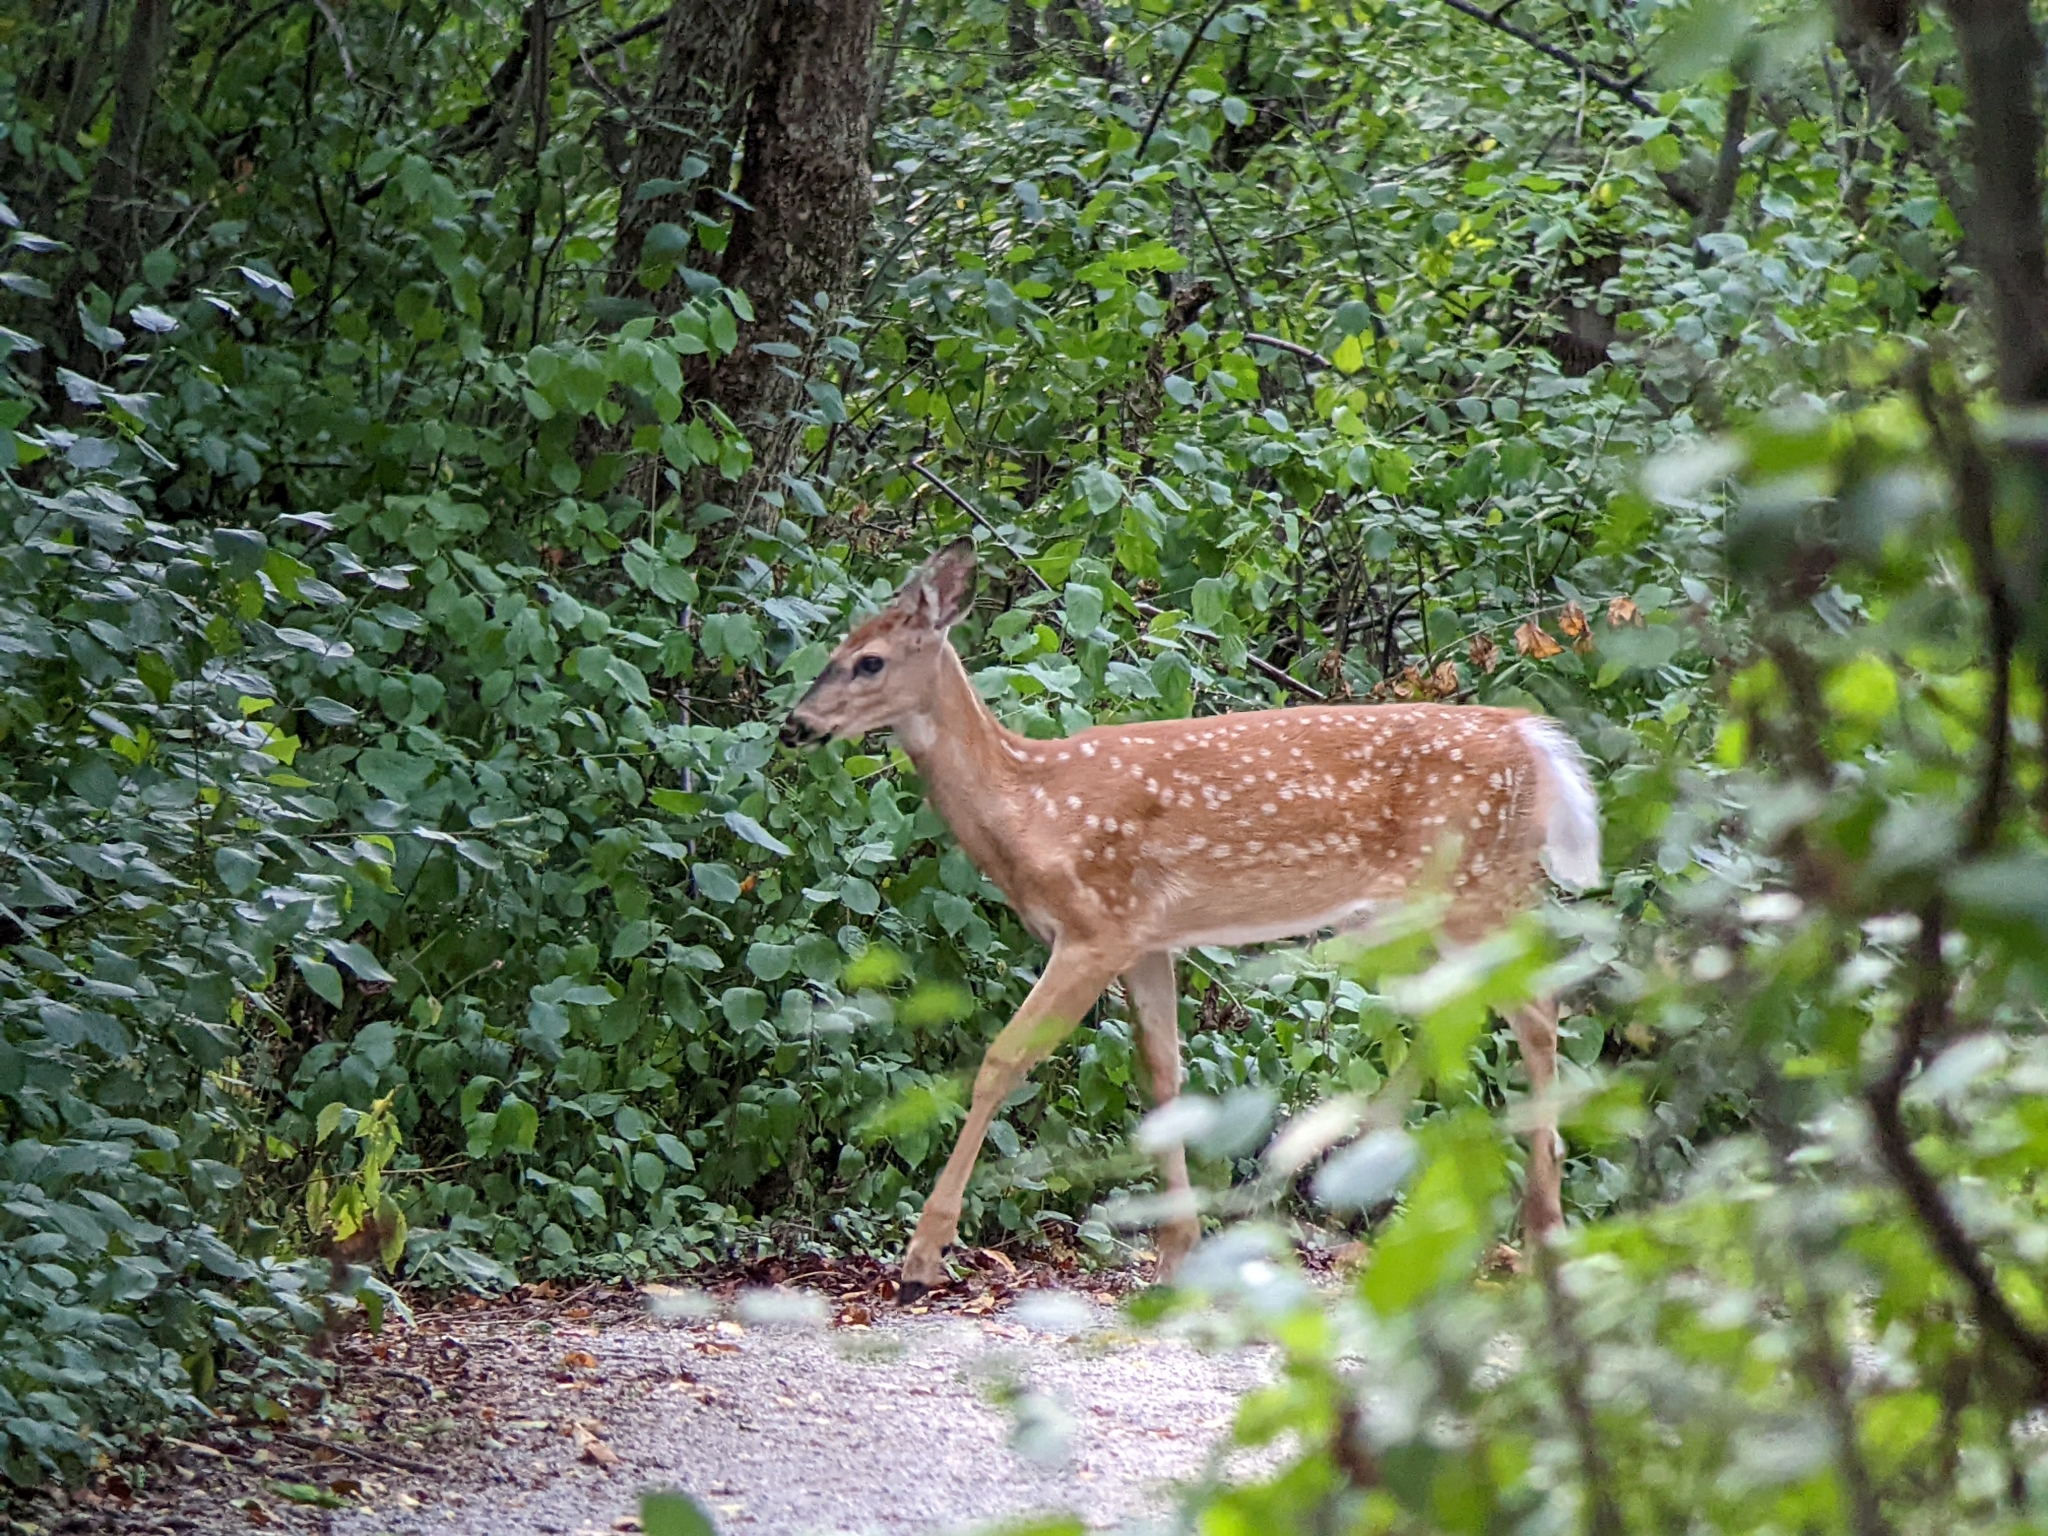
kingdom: Animalia
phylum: Chordata
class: Mammalia
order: Artiodactyla
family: Cervidae
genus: Odocoileus
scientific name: Odocoileus virginianus
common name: White-tailed deer
